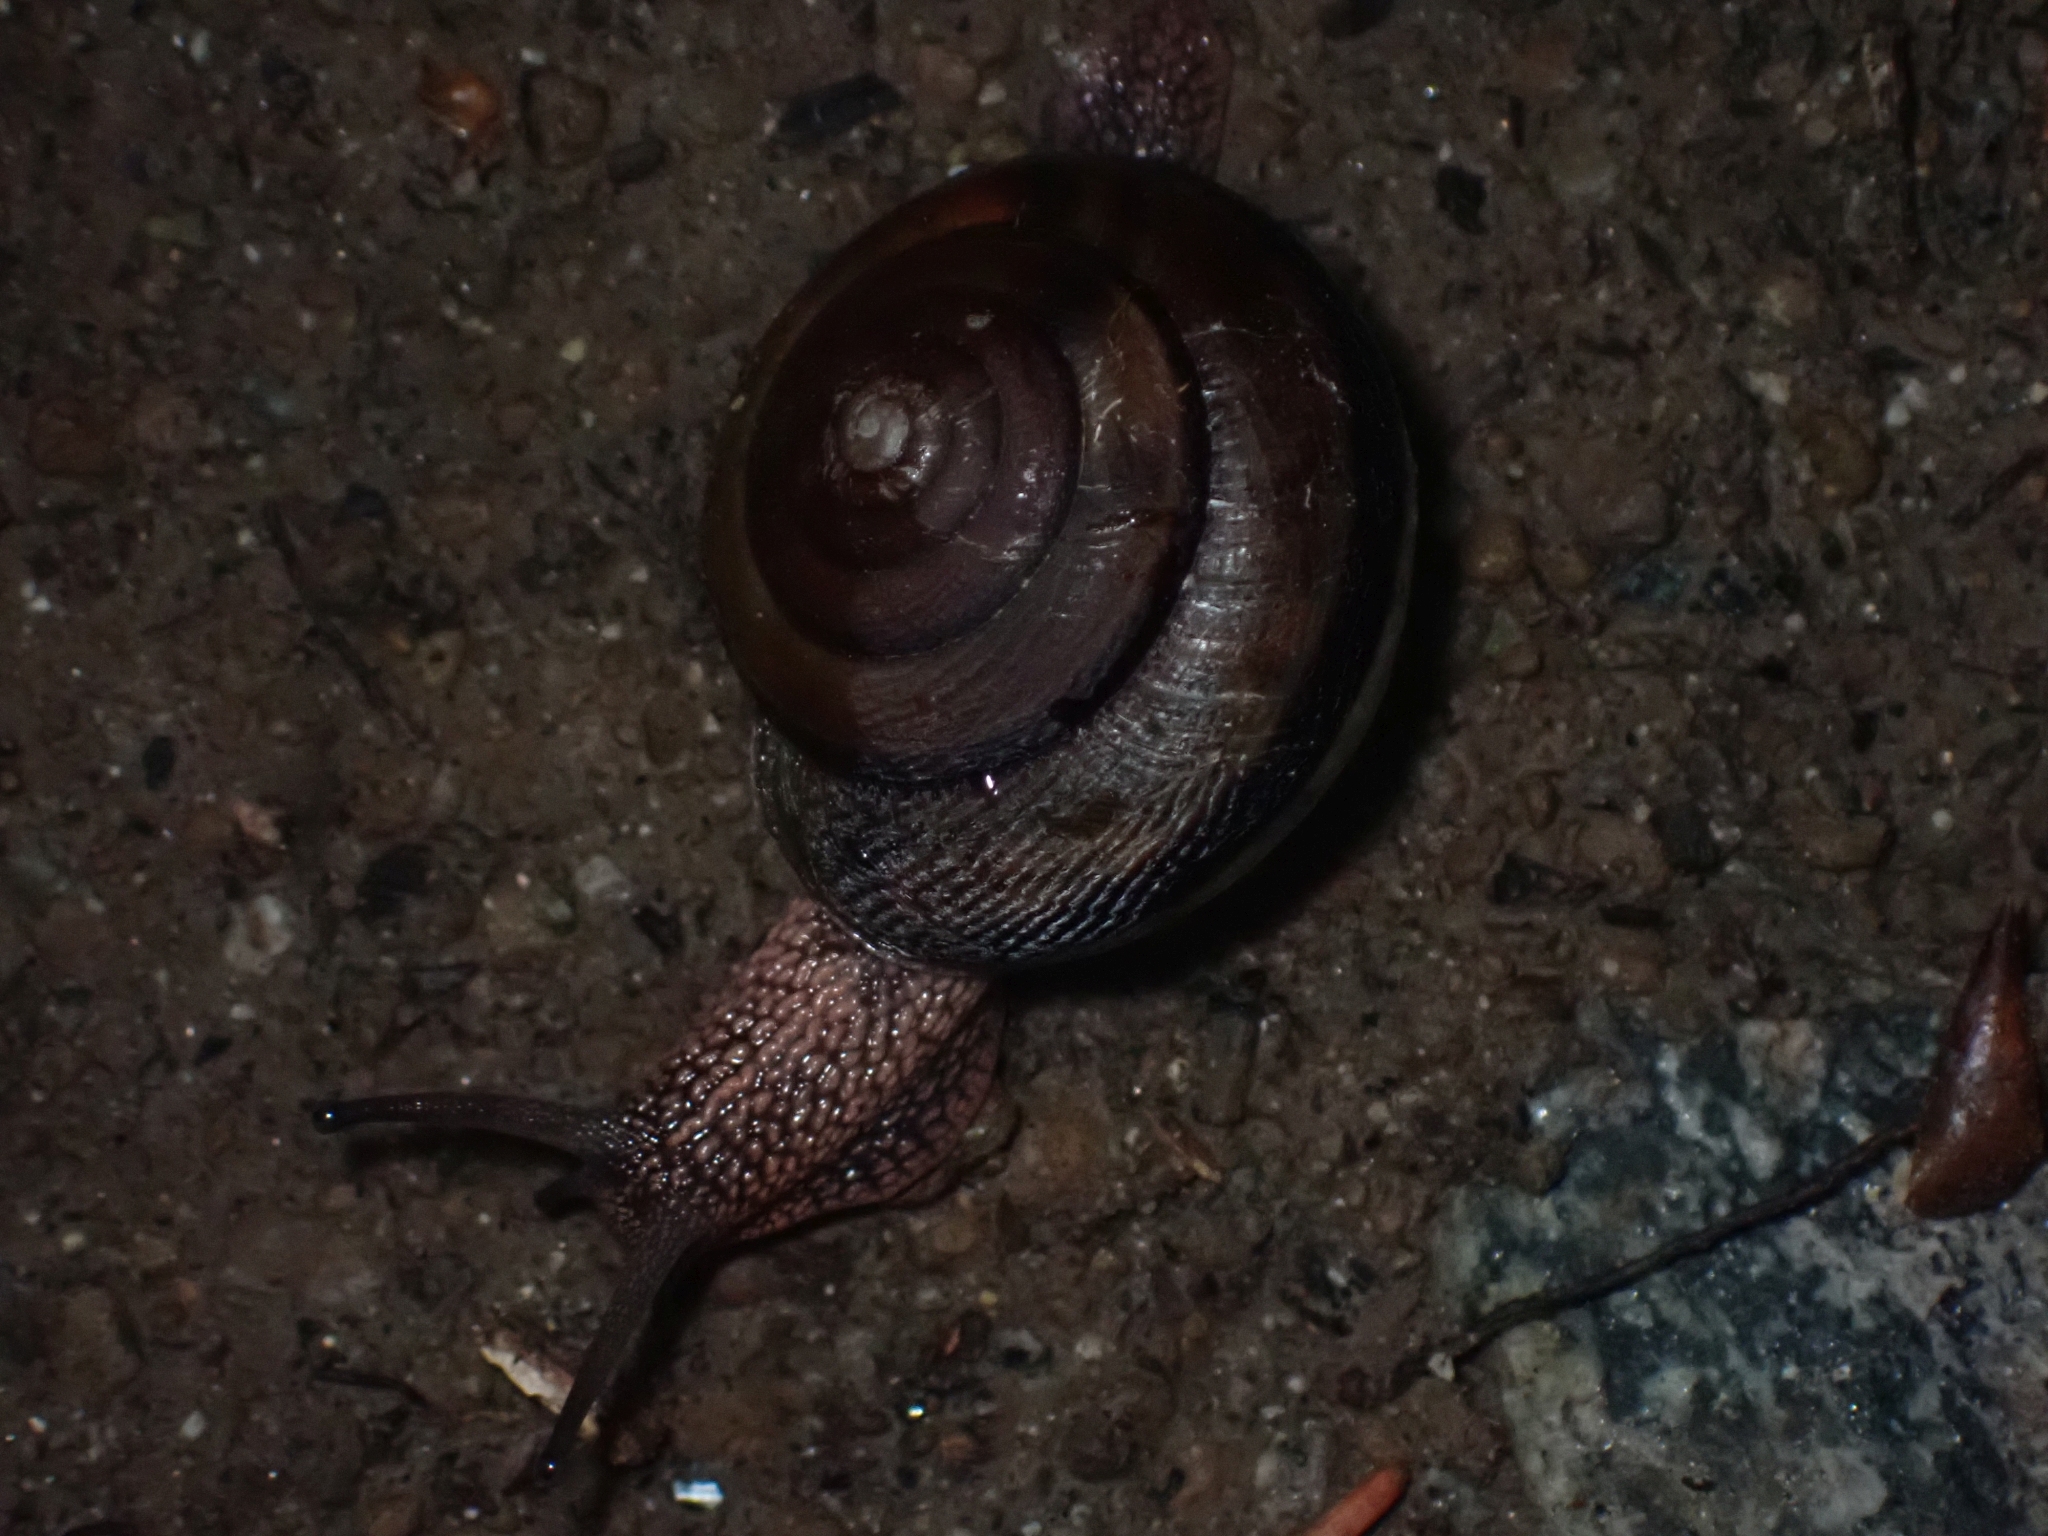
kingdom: Animalia
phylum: Mollusca
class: Gastropoda
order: Stylommatophora
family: Xanthonychidae
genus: Monadenia
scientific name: Monadenia fidelis
